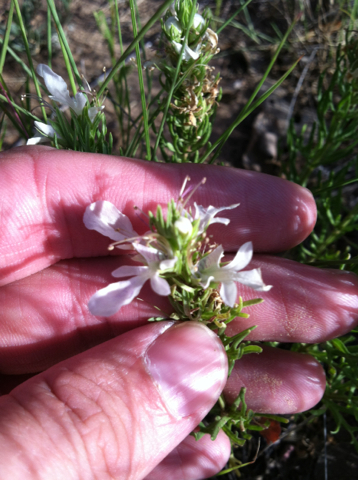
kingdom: Plantae
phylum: Tracheophyta
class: Magnoliopsida
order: Lamiales
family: Lamiaceae
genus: Teucrium
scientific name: Teucrium laciniatum
